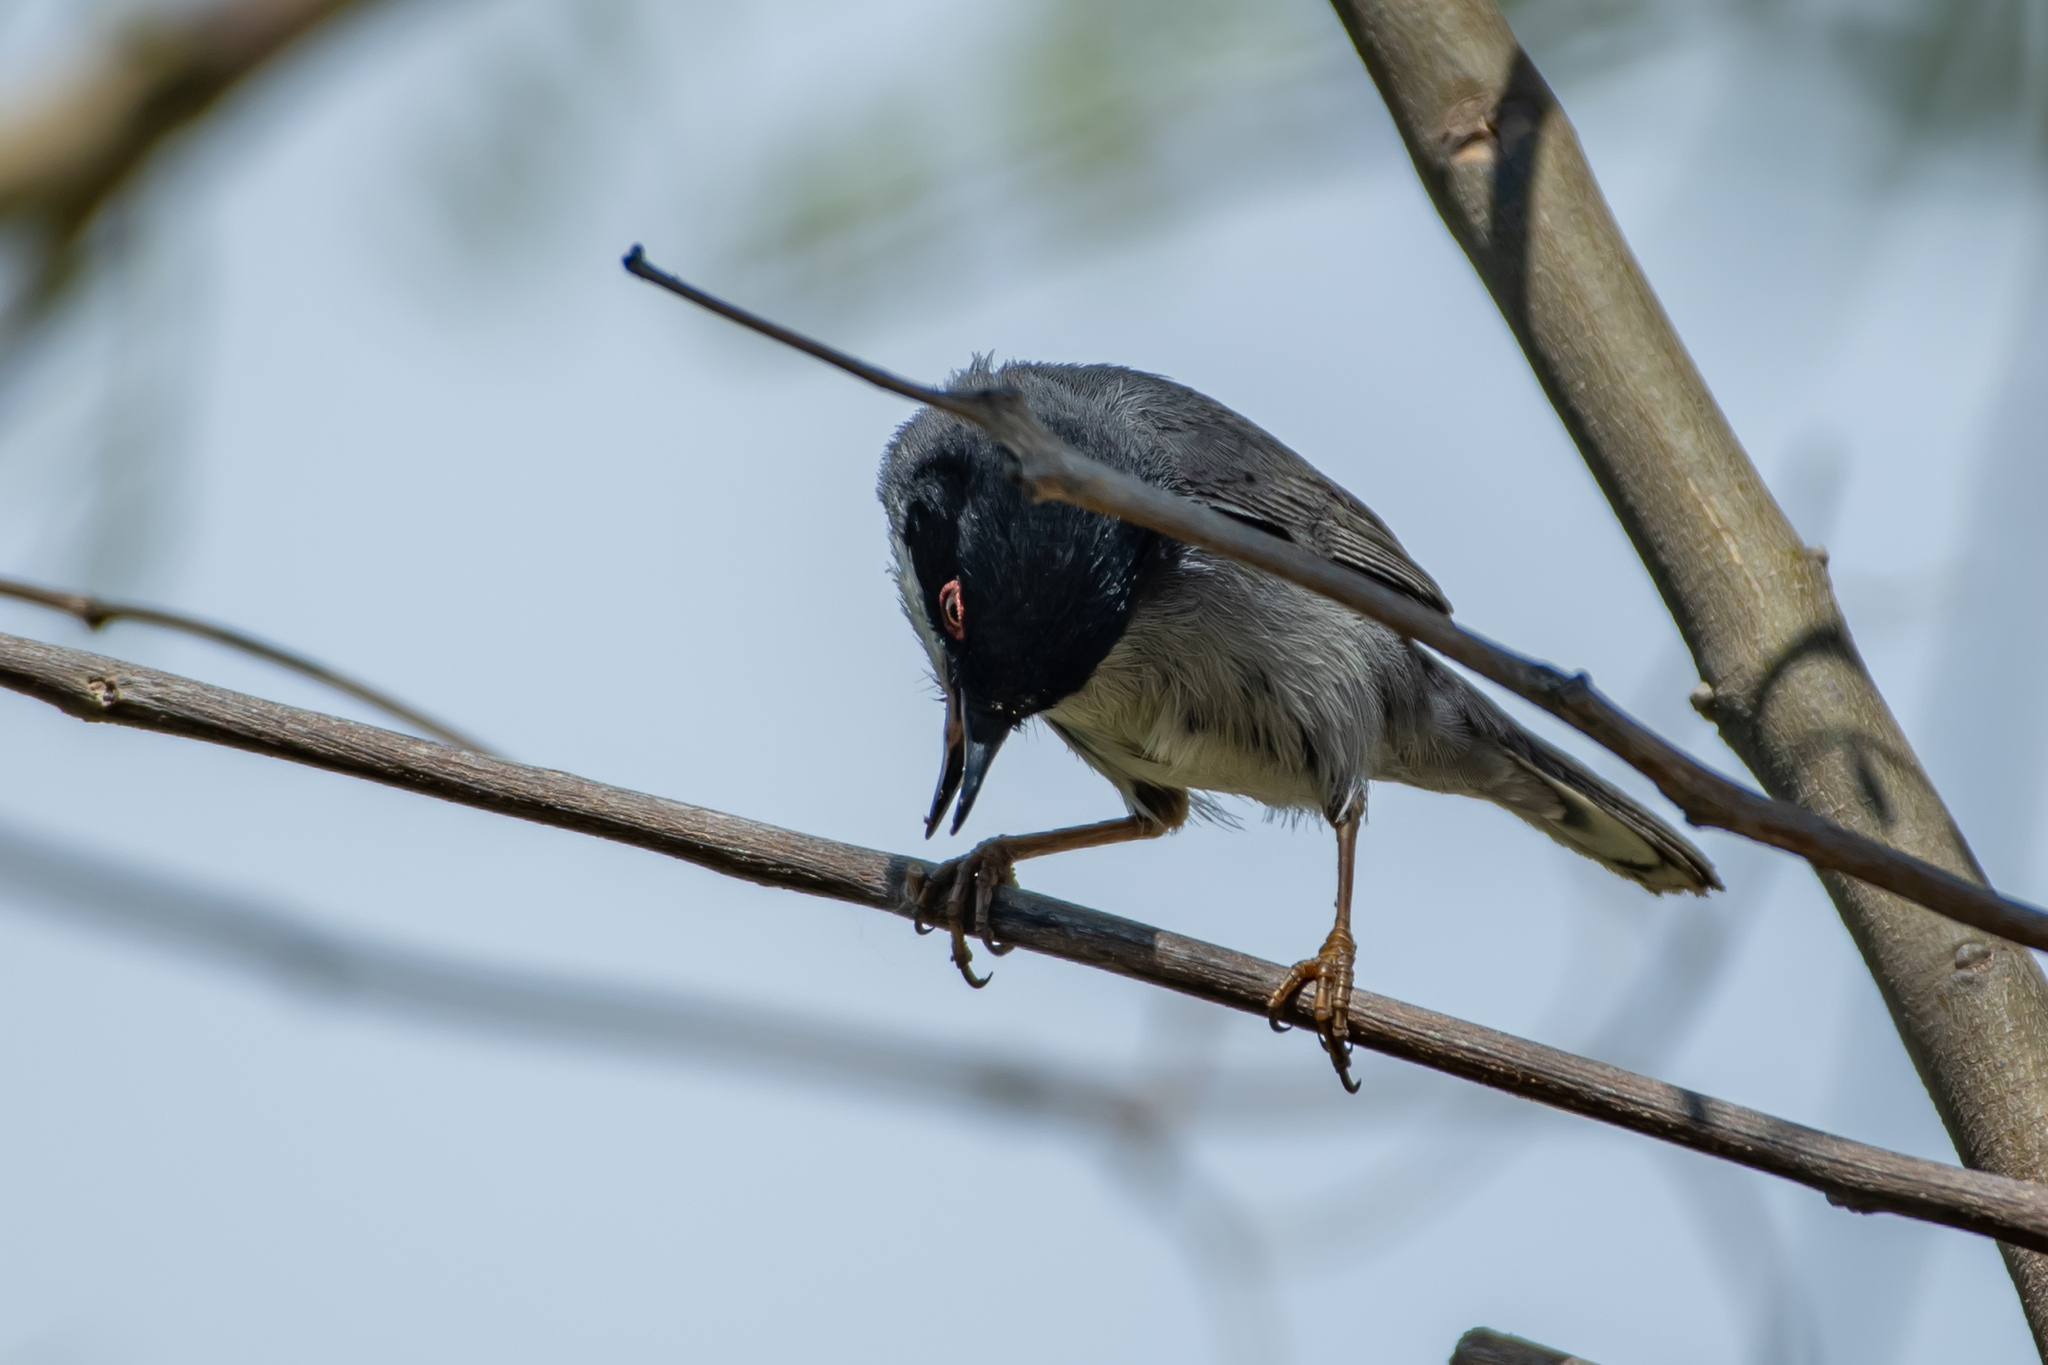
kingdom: Animalia
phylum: Chordata
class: Aves
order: Passeriformes
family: Sylviidae
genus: Curruca
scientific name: Curruca melanocephala
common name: Sardinian warbler
